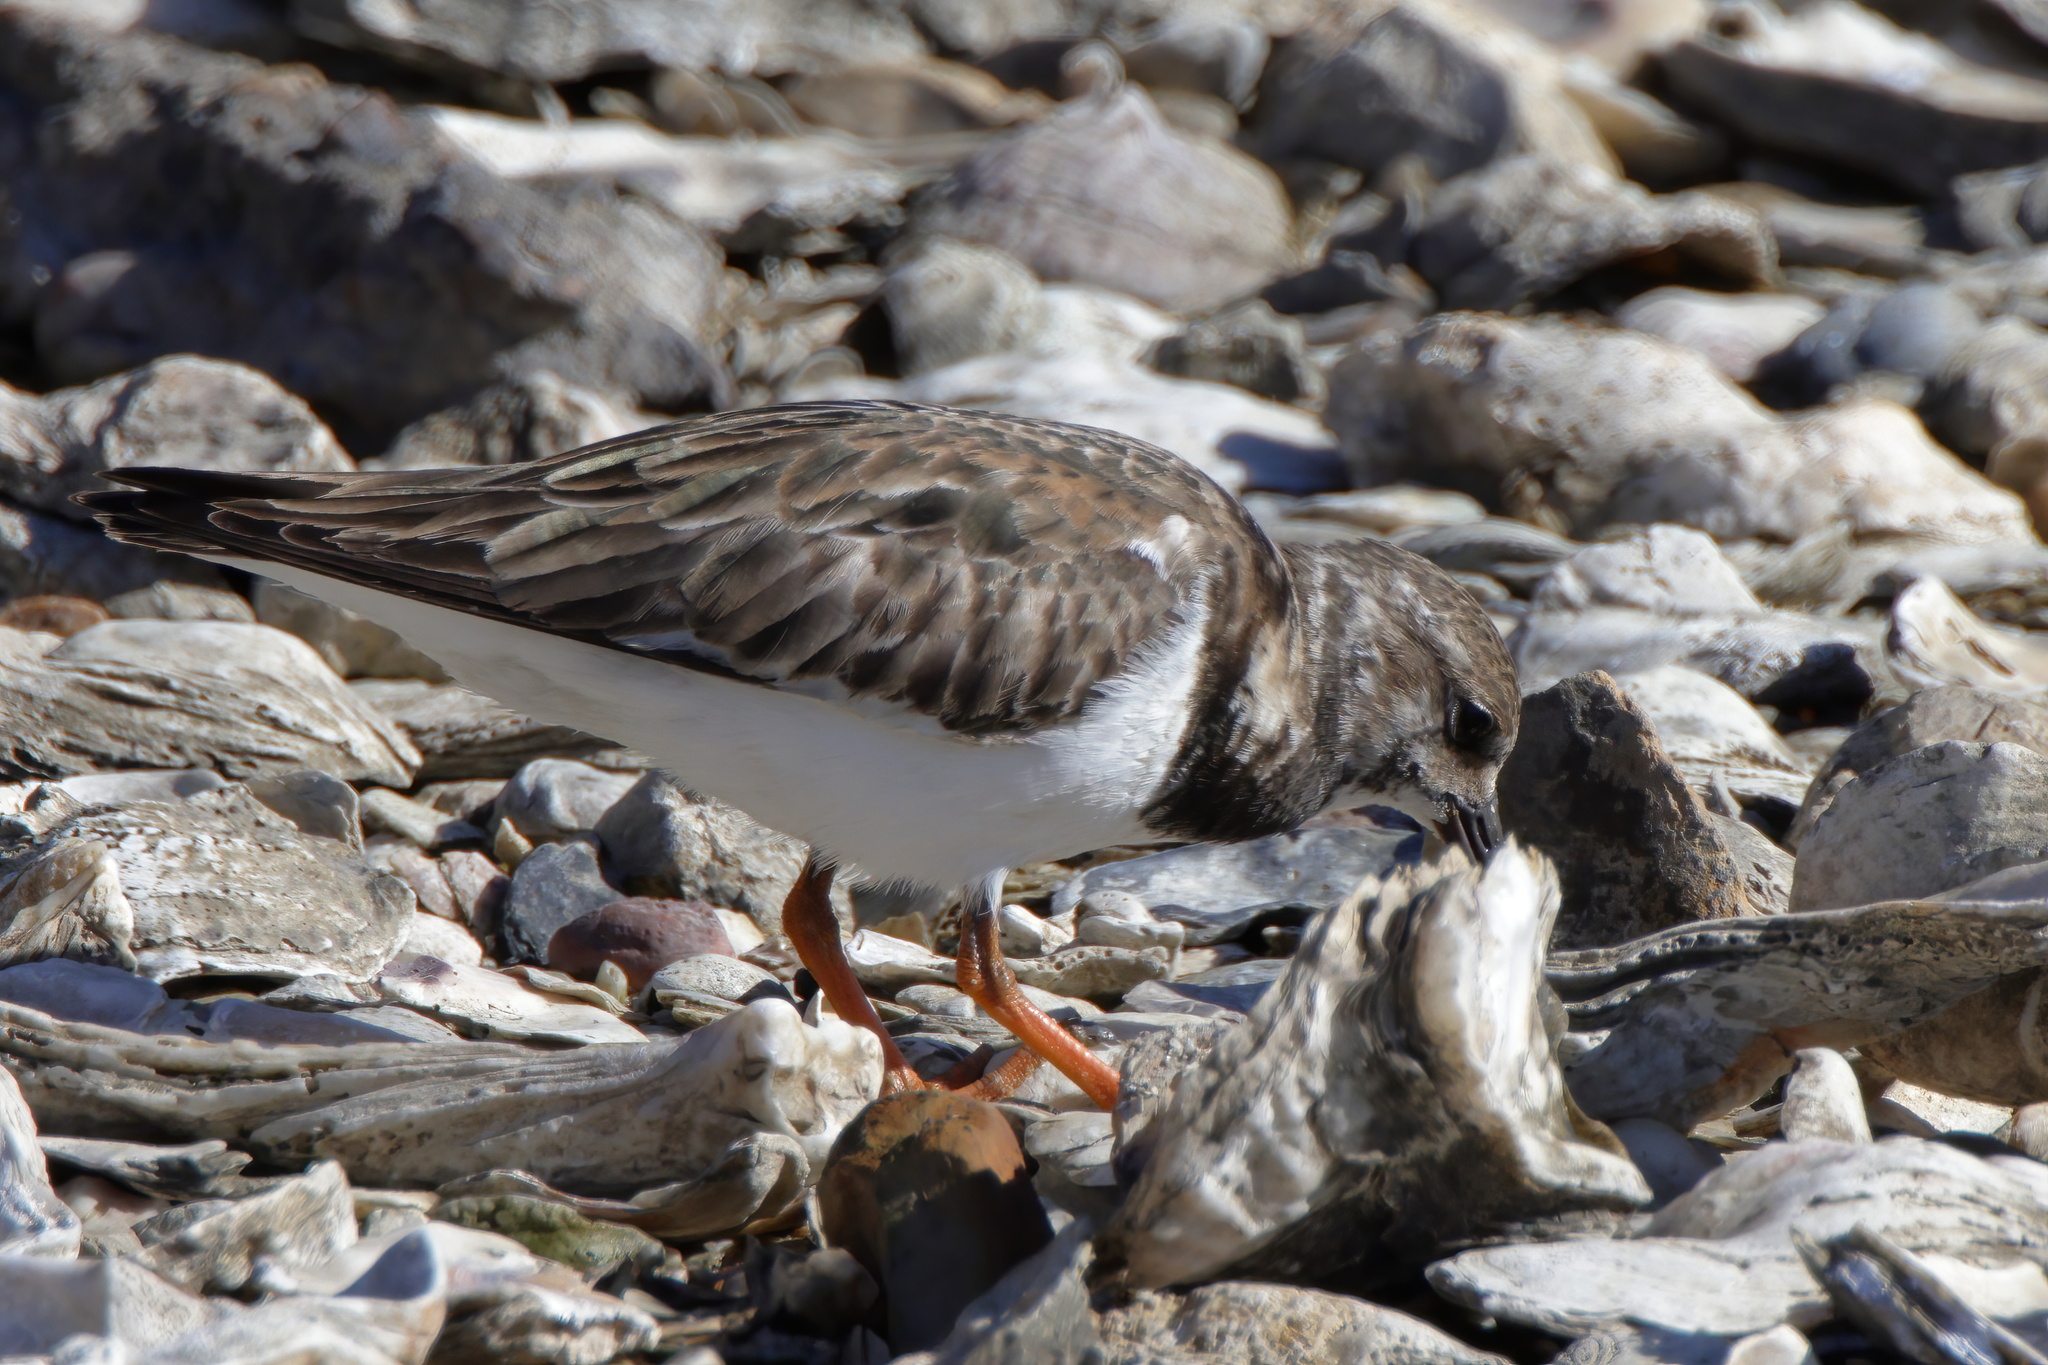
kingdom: Animalia
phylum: Chordata
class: Aves
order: Charadriiformes
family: Scolopacidae
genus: Arenaria
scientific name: Arenaria interpres
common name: Ruddy turnstone
